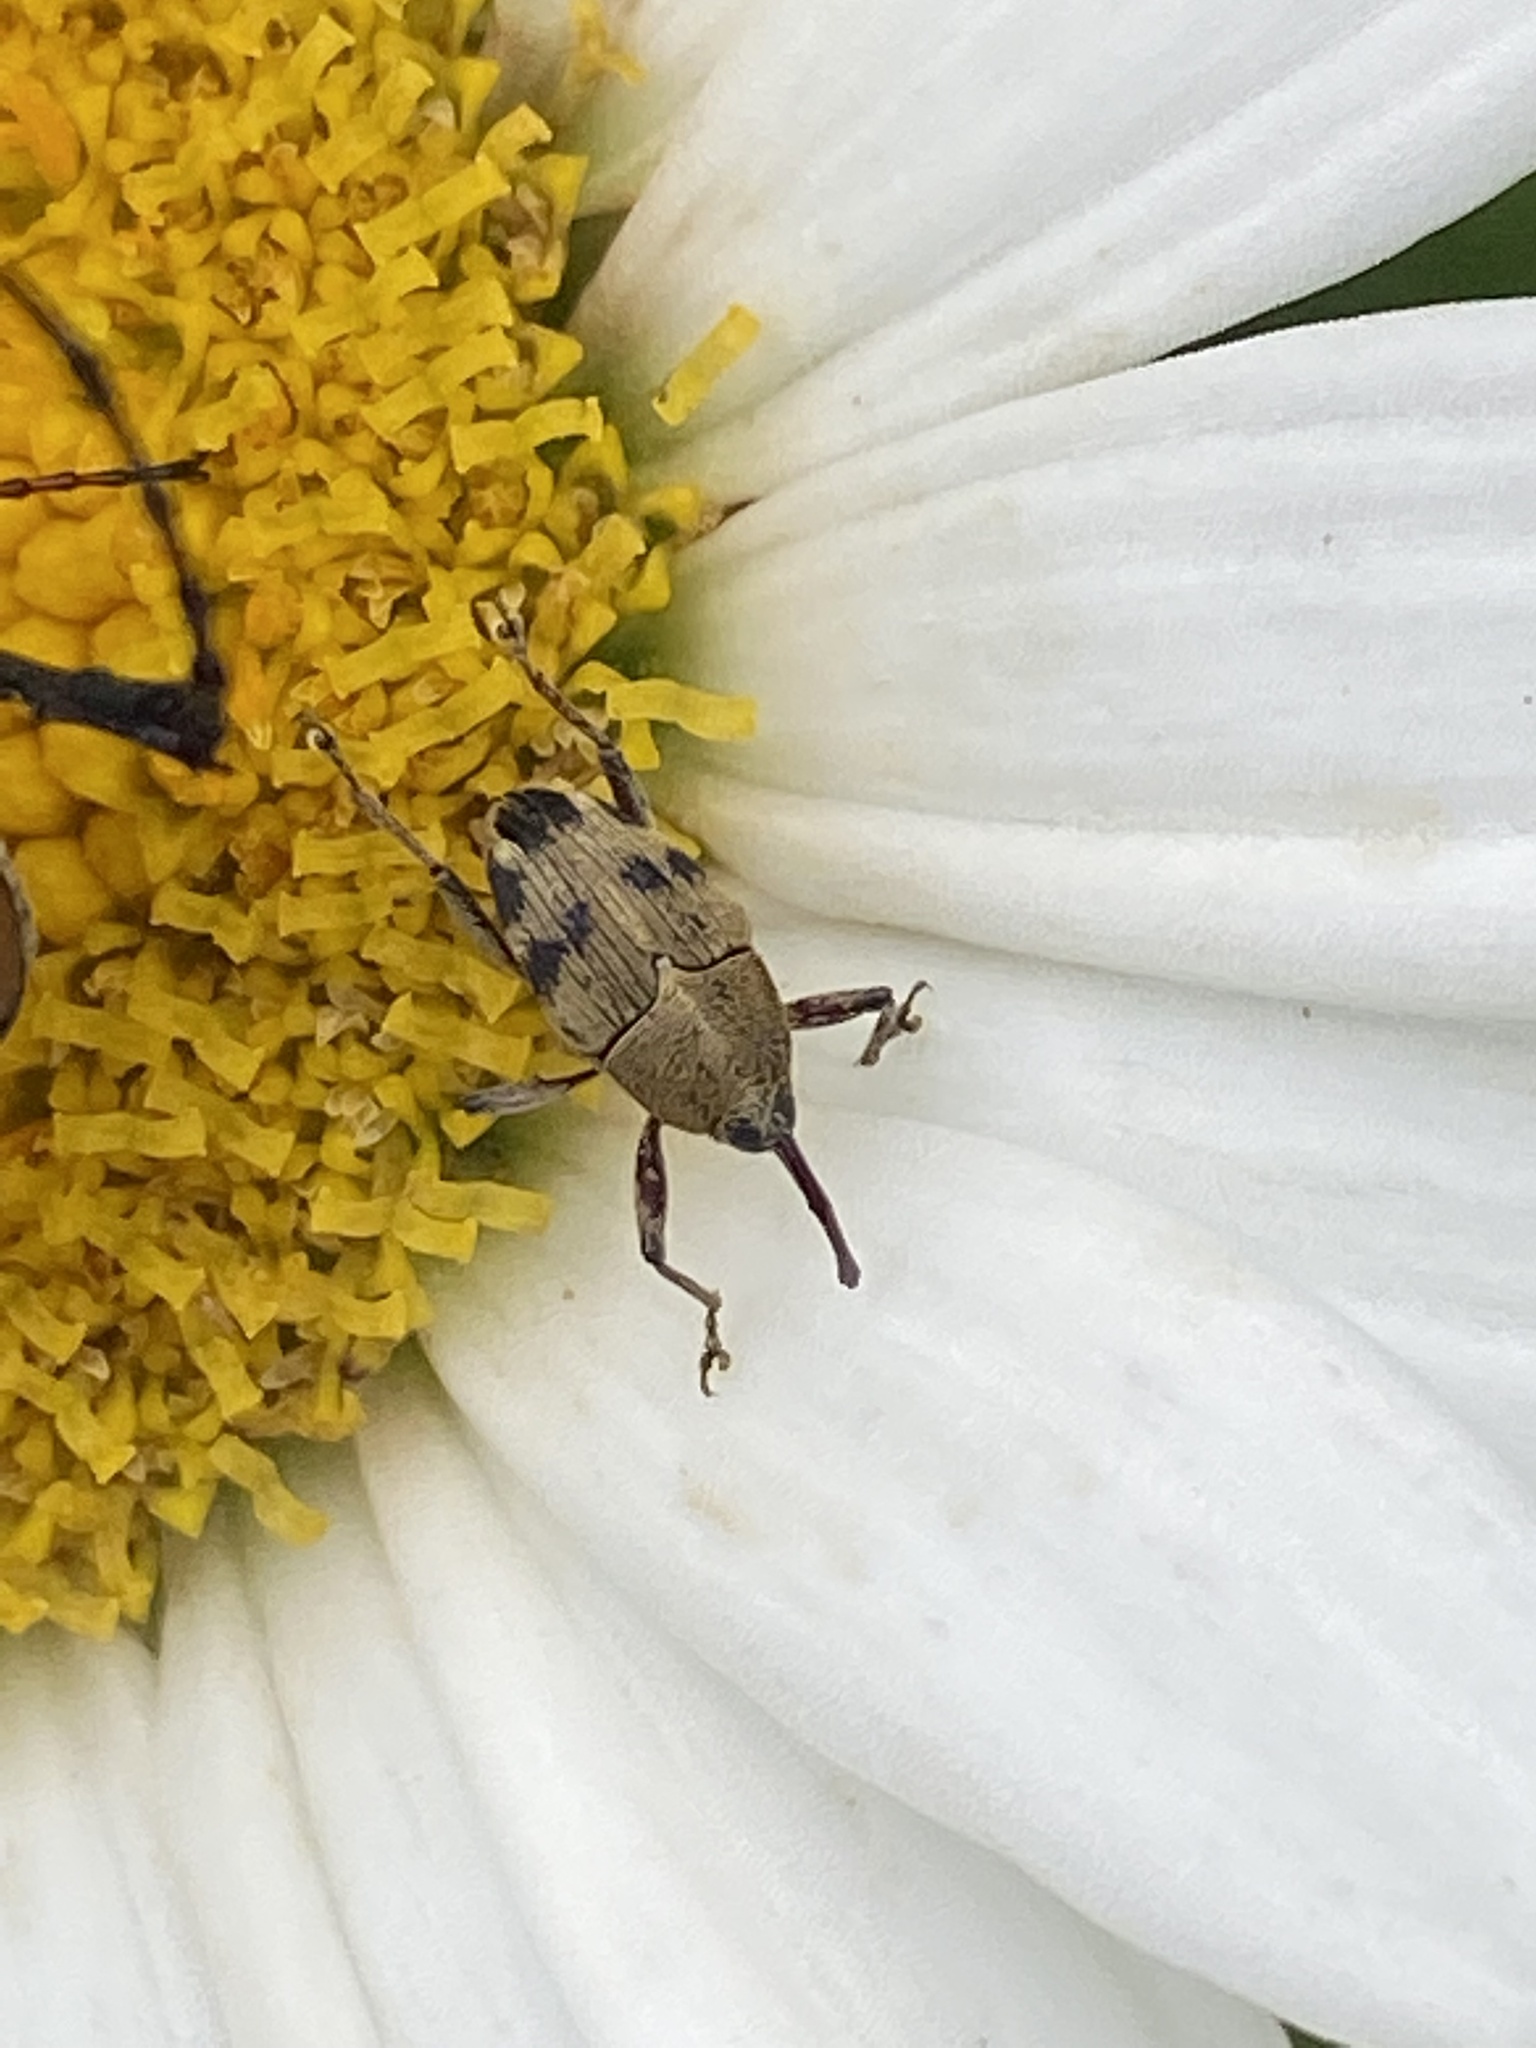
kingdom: Animalia
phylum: Arthropoda
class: Insecta
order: Coleoptera
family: Curculionidae
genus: Geraeus
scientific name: Geraeus
